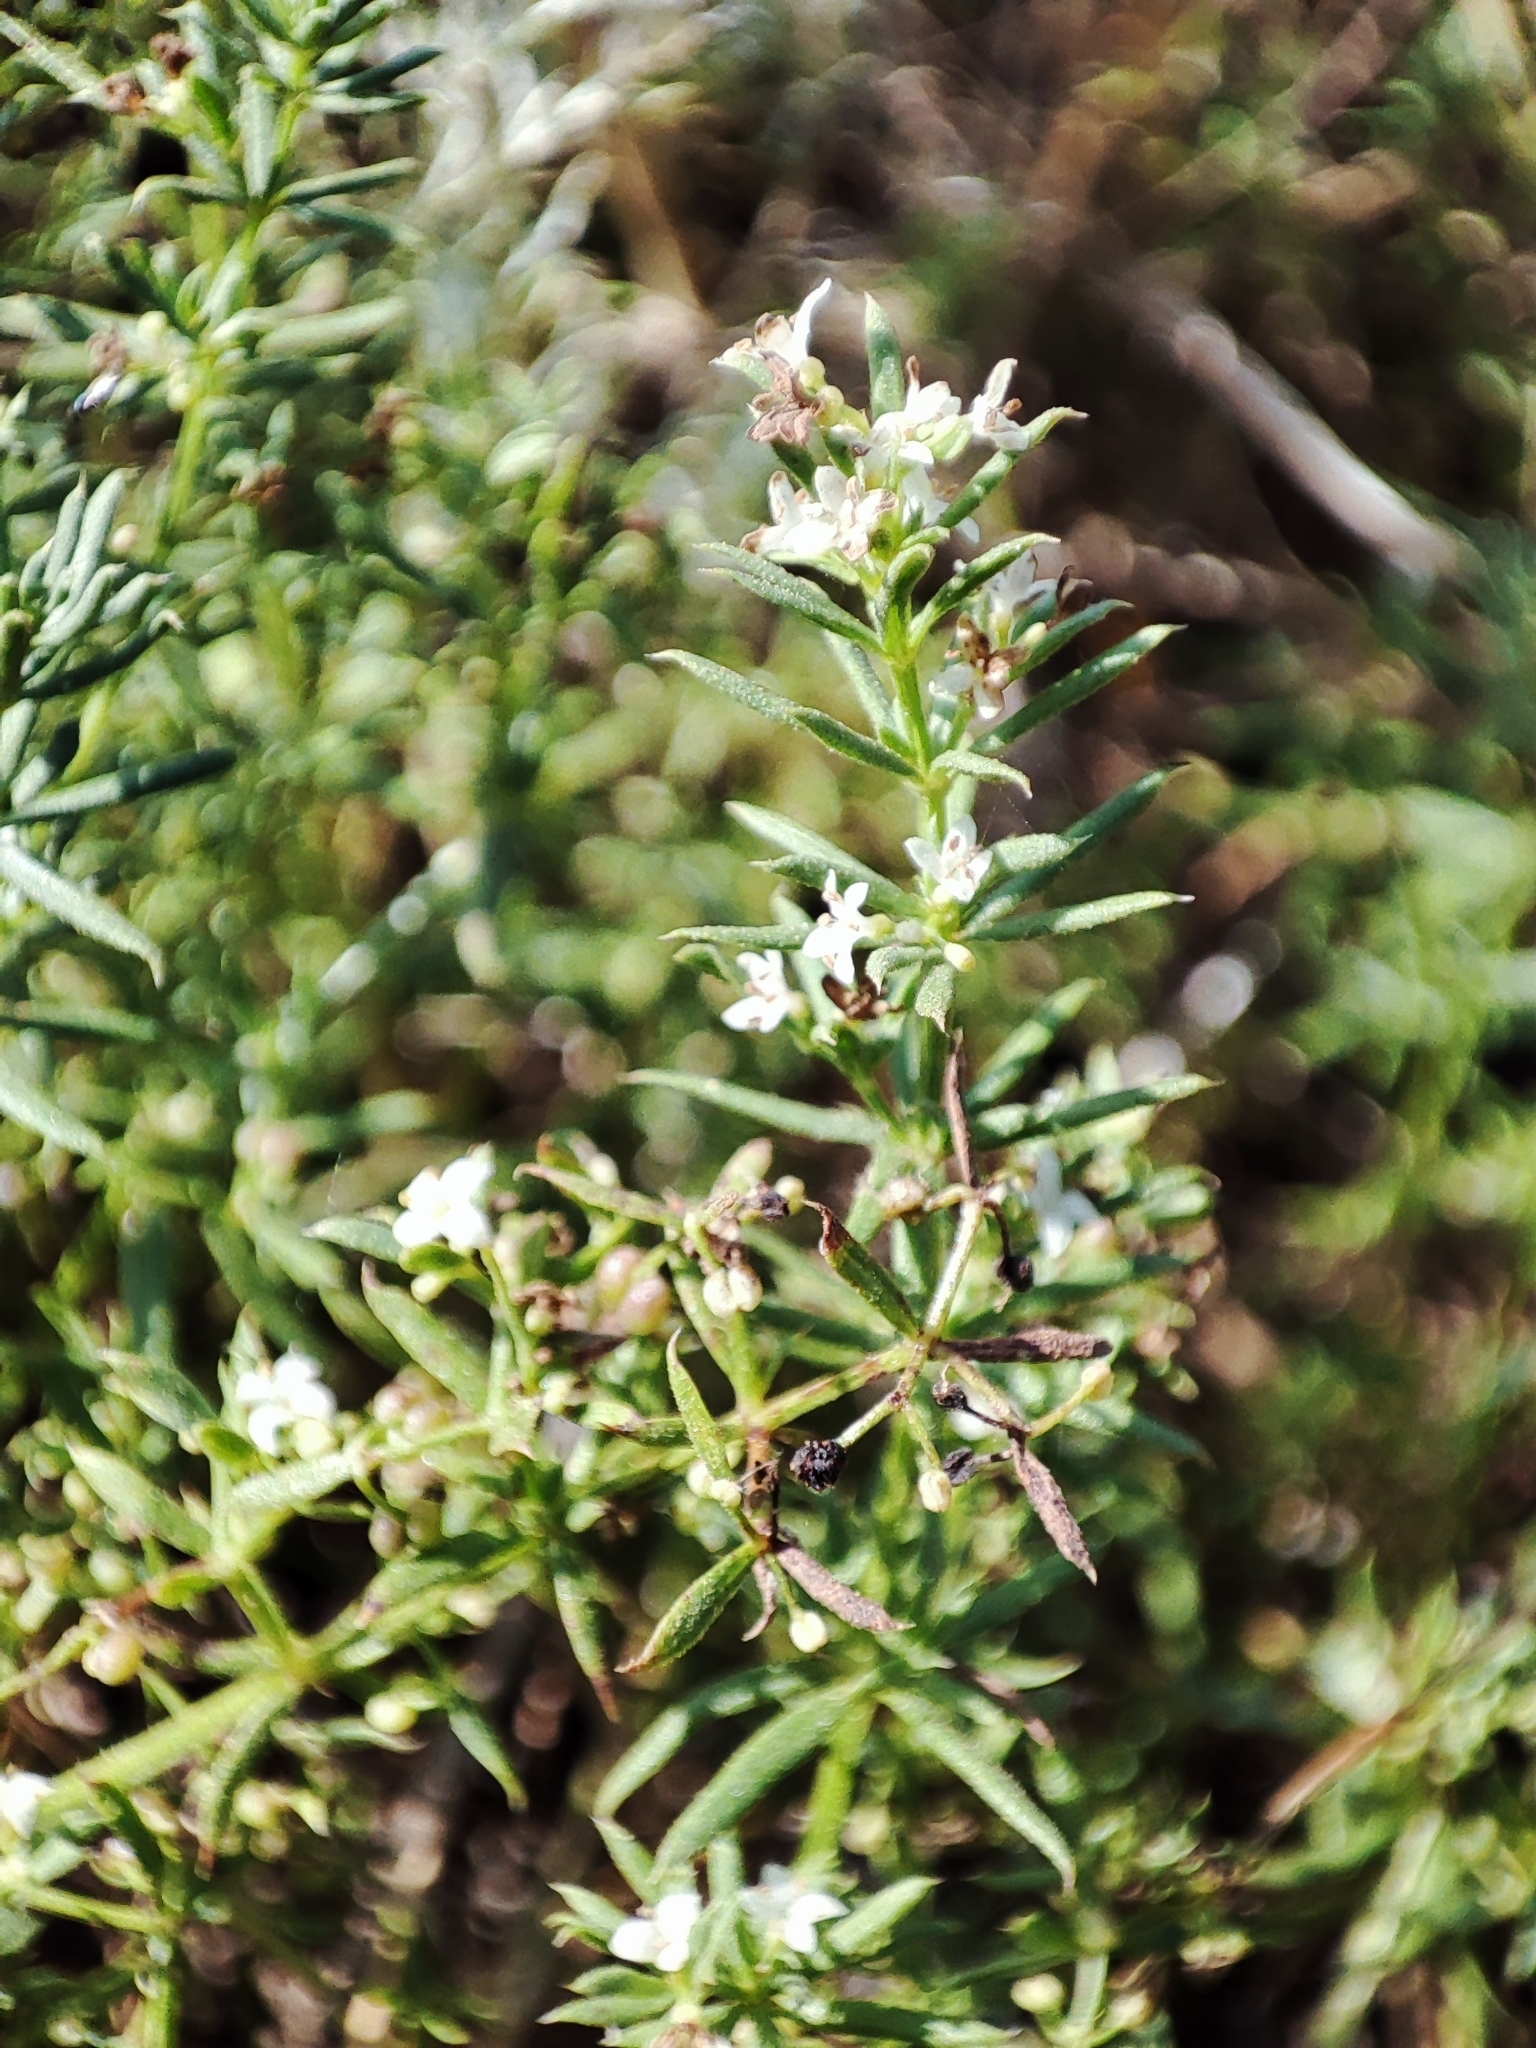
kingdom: Plantae
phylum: Tracheophyta
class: Magnoliopsida
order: Gentianales
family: Rubiaceae
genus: Galium
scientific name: Galium humifusum
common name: Spreading bedstraw
